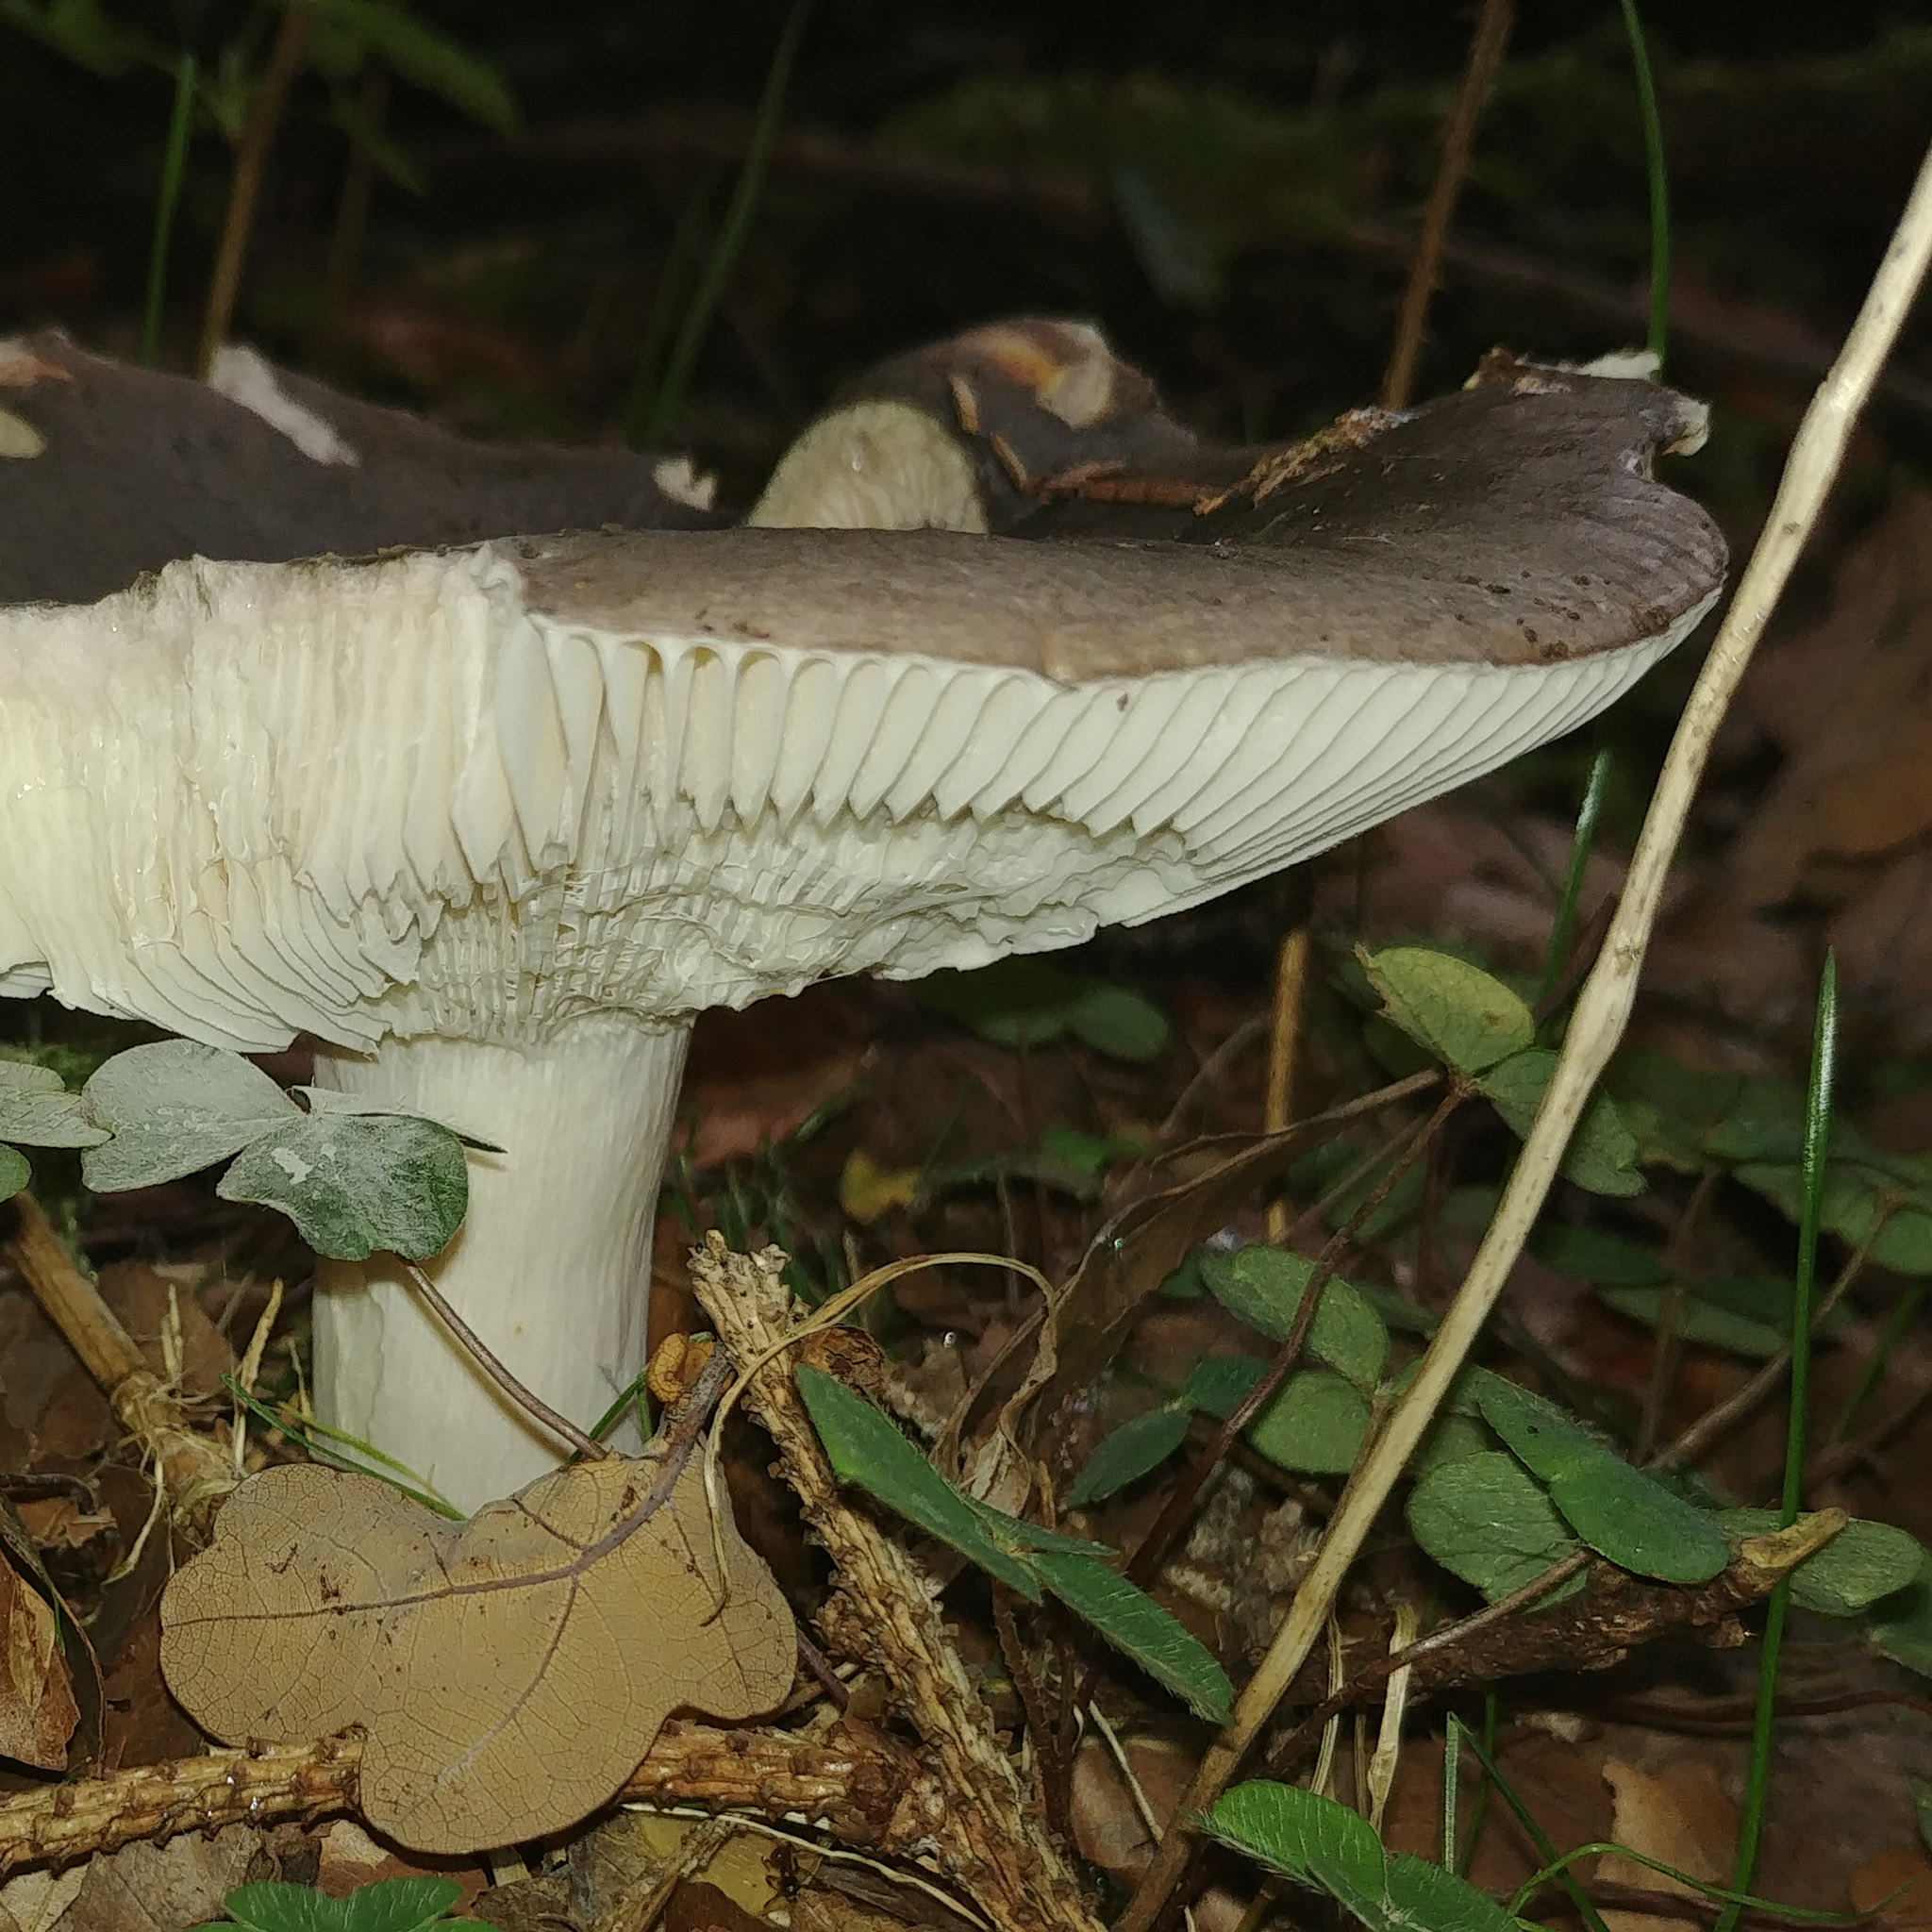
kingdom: Fungi
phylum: Basidiomycota
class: Agaricomycetes
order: Russulales
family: Russulaceae
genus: Russula
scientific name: Russula cyanoxantha
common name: Charcoal burner
